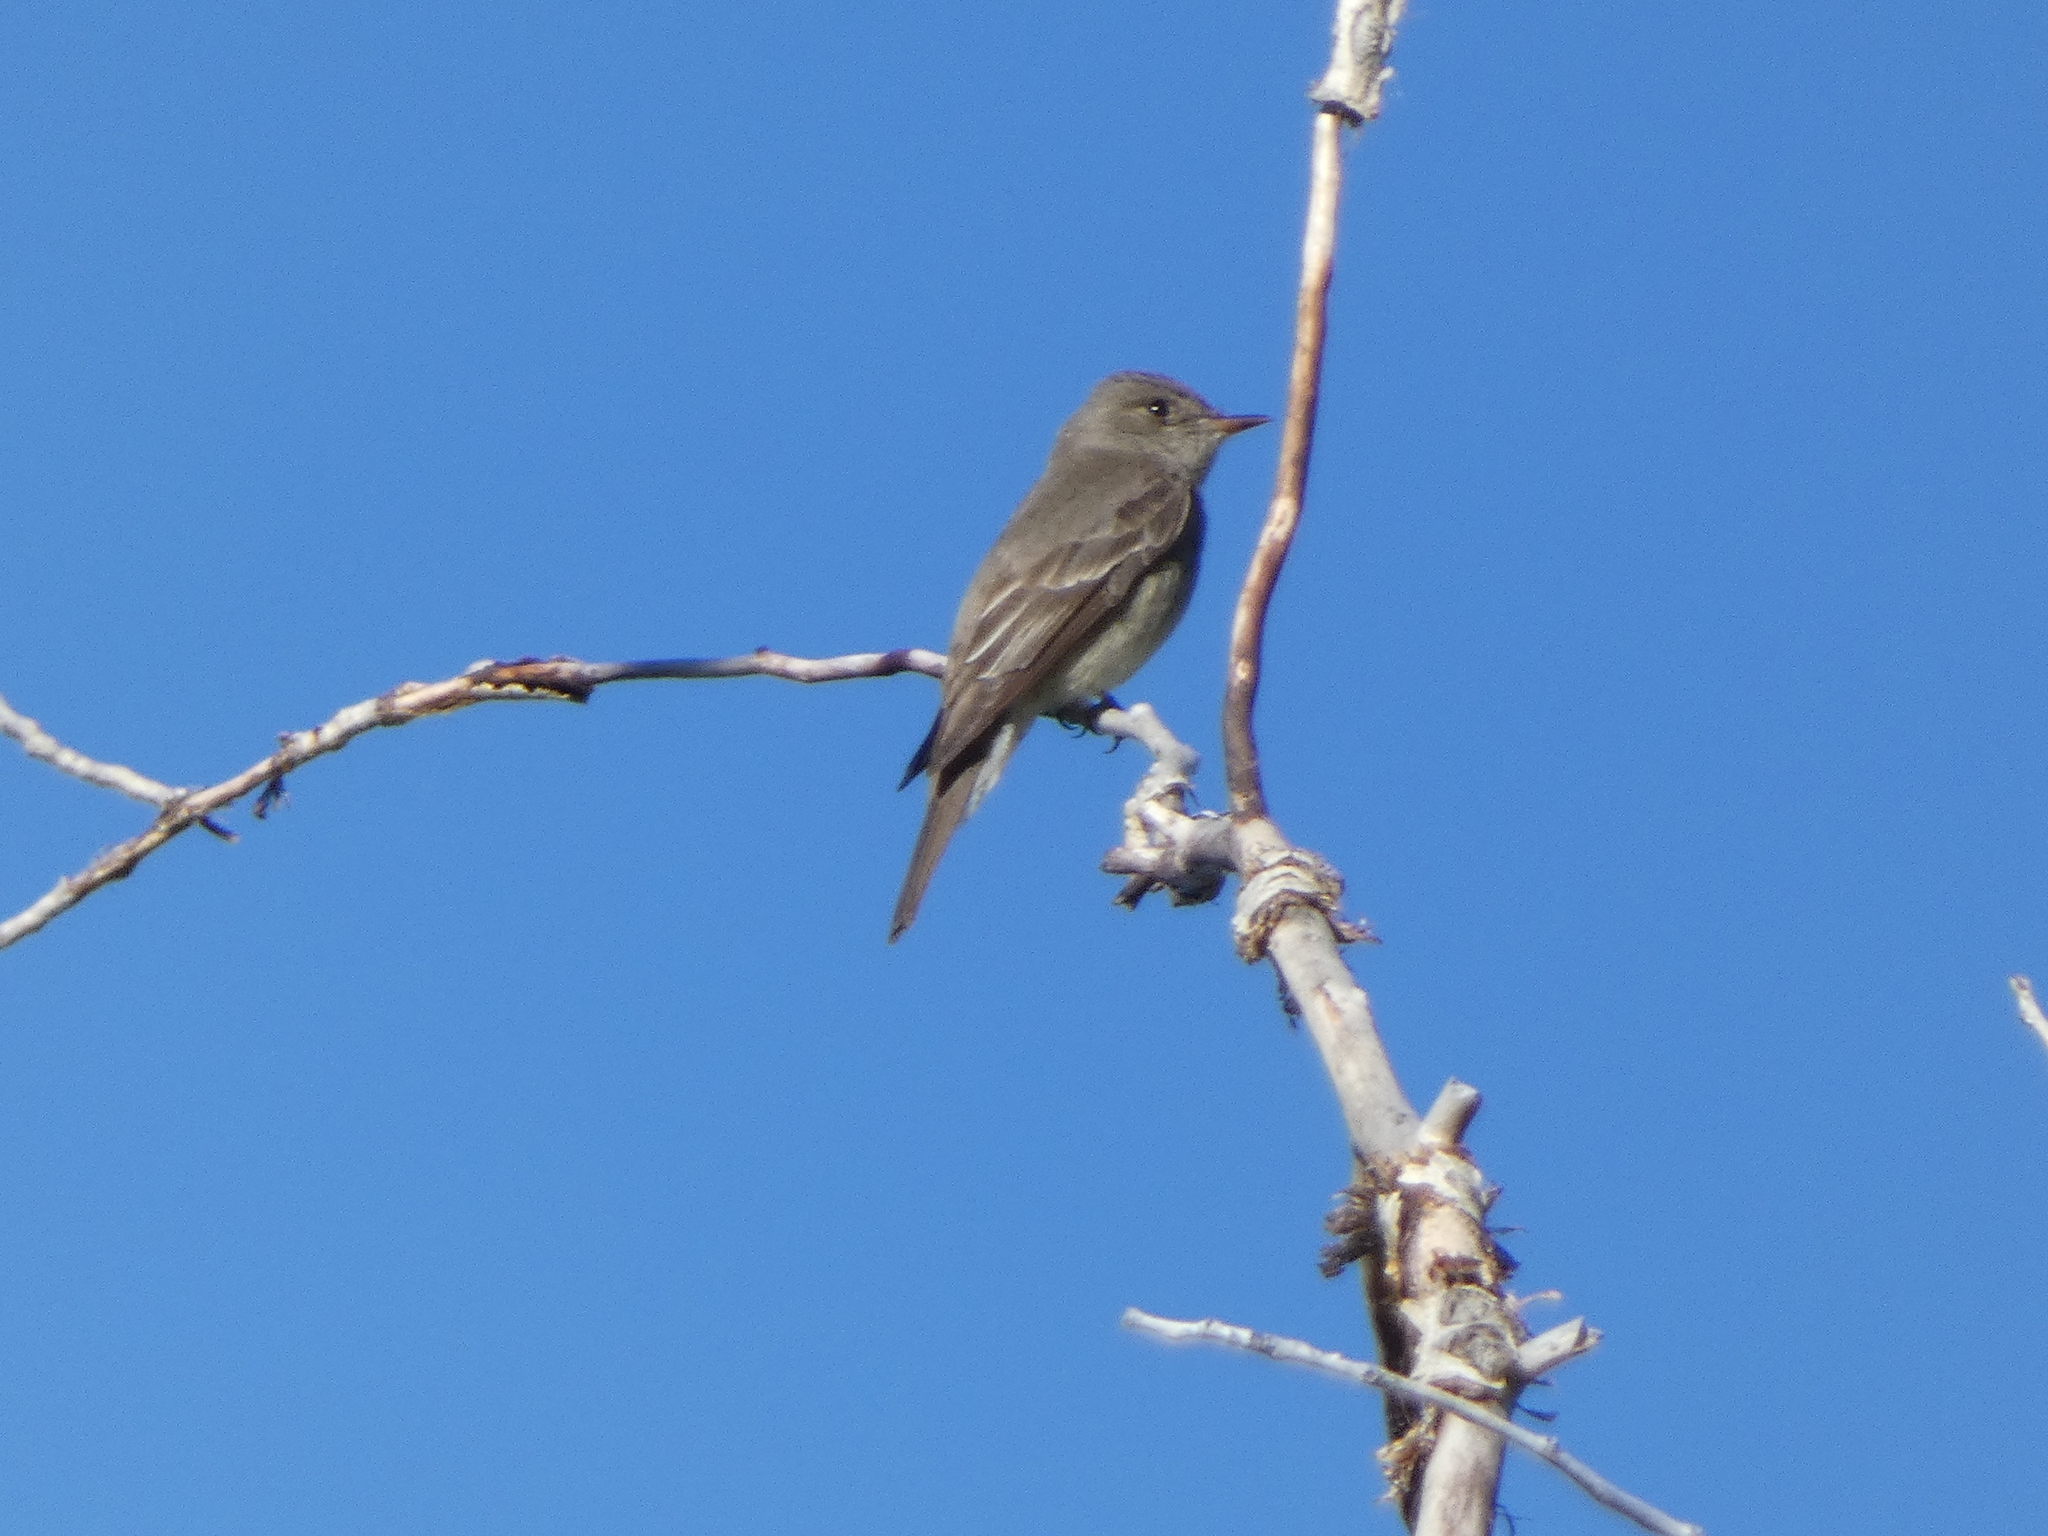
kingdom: Animalia
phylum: Chordata
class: Aves
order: Passeriformes
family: Tyrannidae
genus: Contopus
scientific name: Contopus sordidulus
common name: Western wood-pewee
